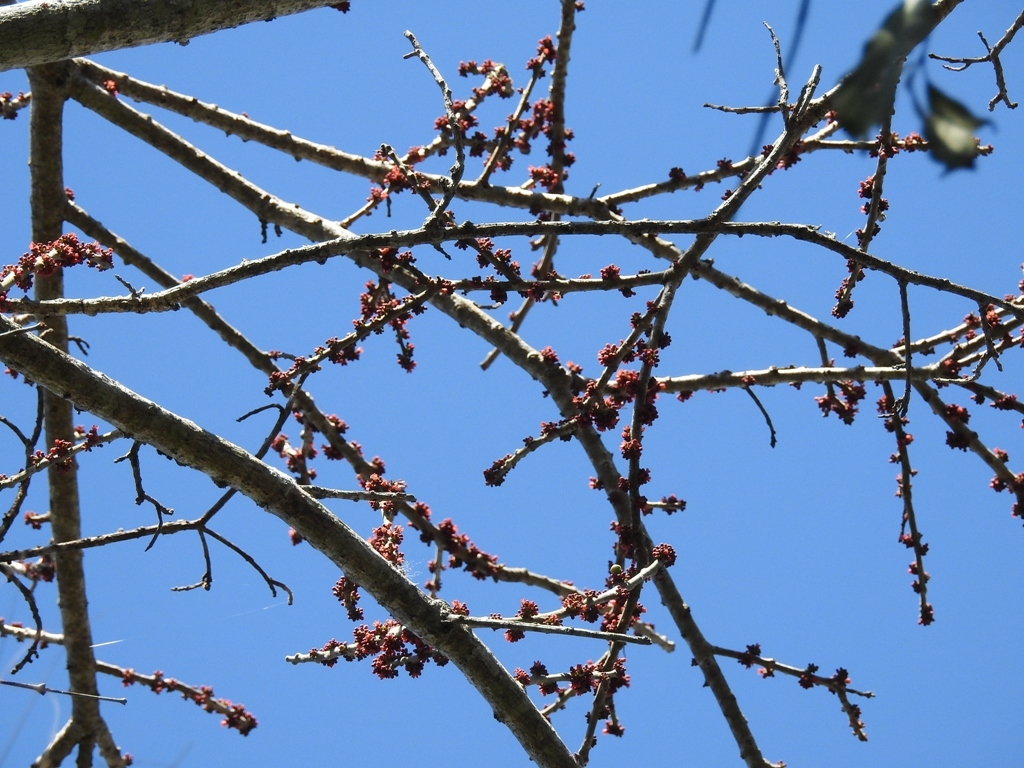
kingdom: Plantae
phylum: Tracheophyta
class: Magnoliopsida
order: Sapindales
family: Anacardiaceae
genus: Spondias
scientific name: Spondias purpurea
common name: Purple mombin
